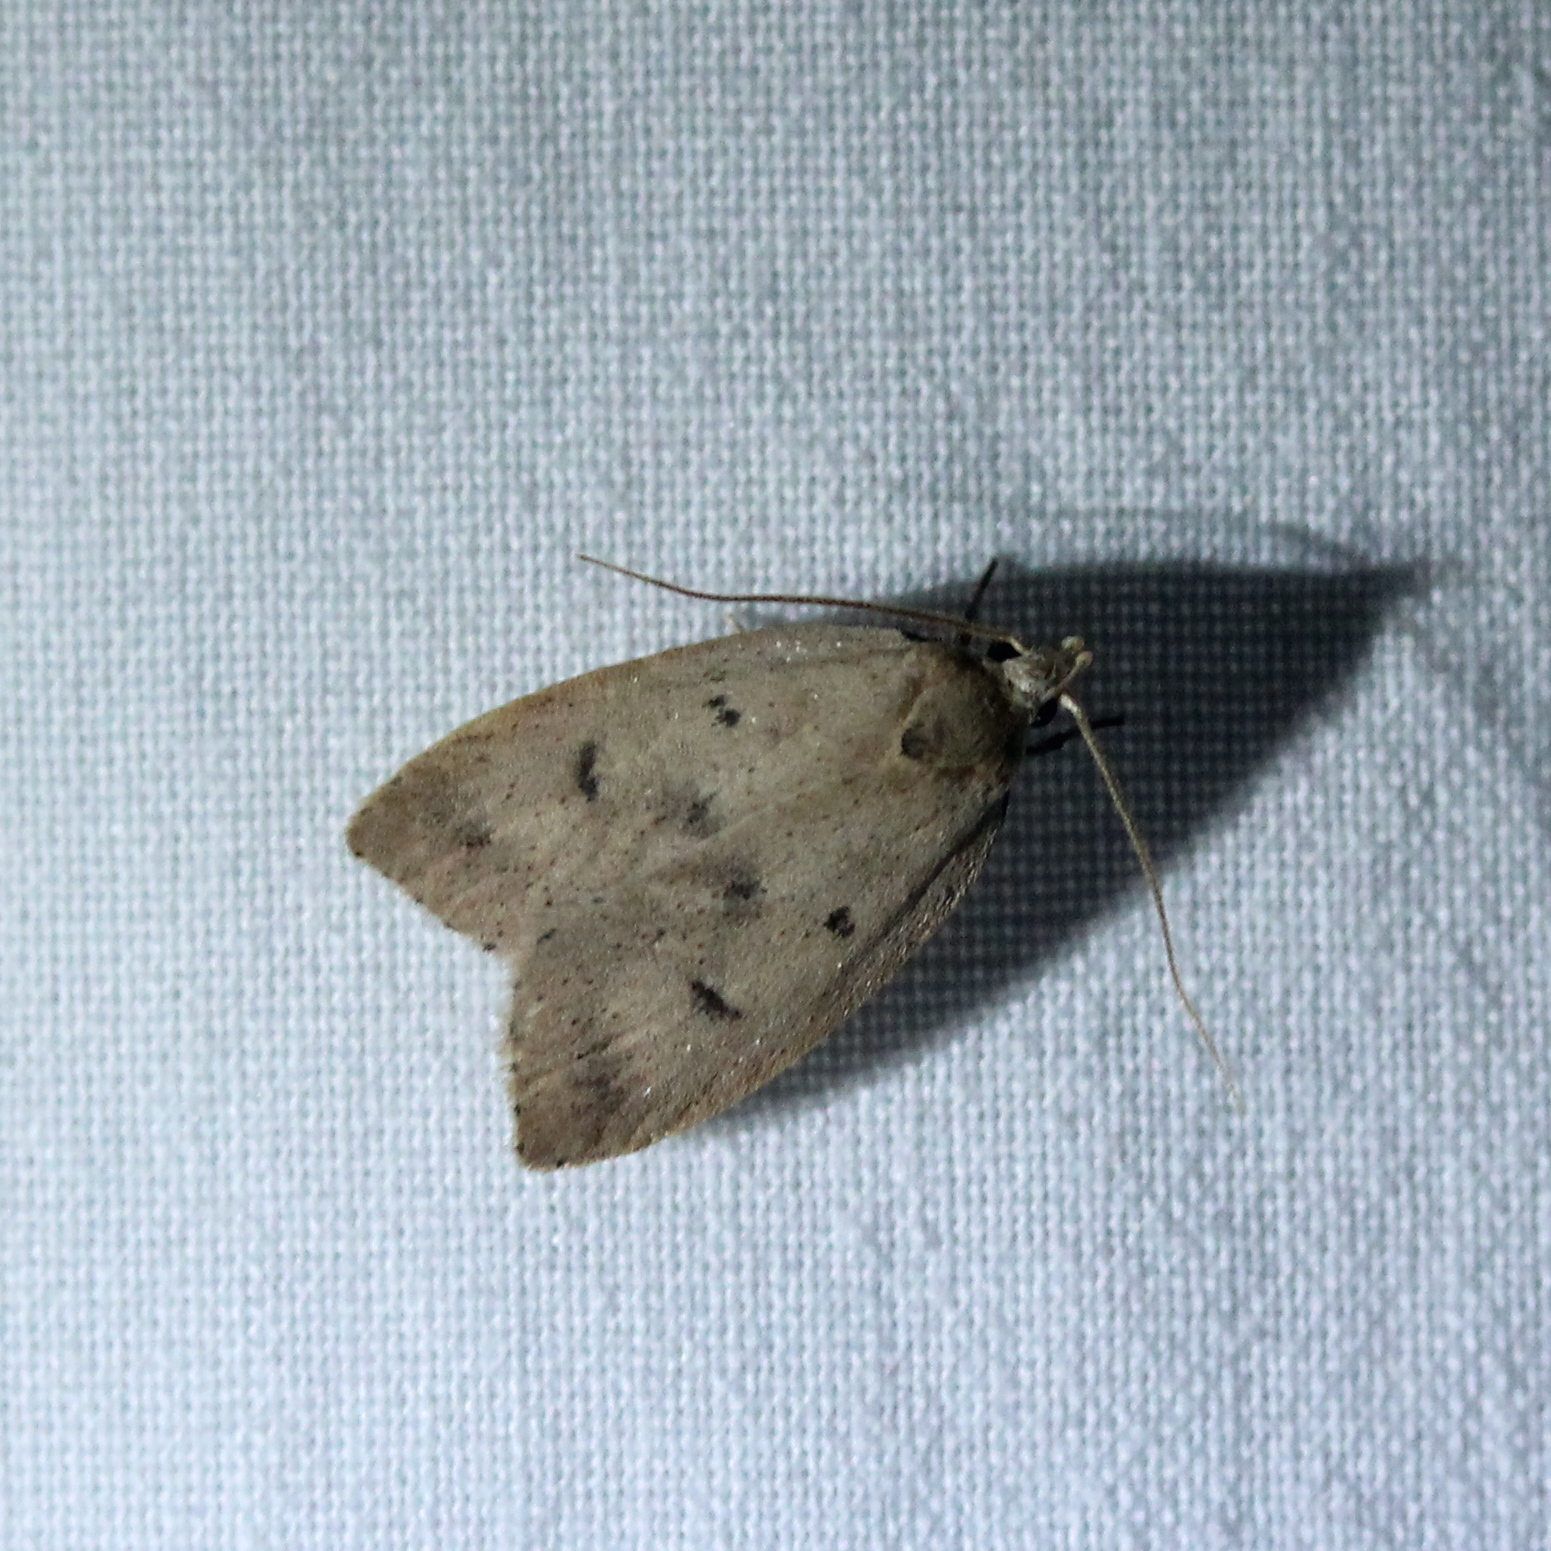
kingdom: Animalia
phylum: Arthropoda
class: Insecta
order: Lepidoptera
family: Peleopodidae
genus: Machimia
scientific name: Machimia tentoriferella
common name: Gold-striped leaftier moth
